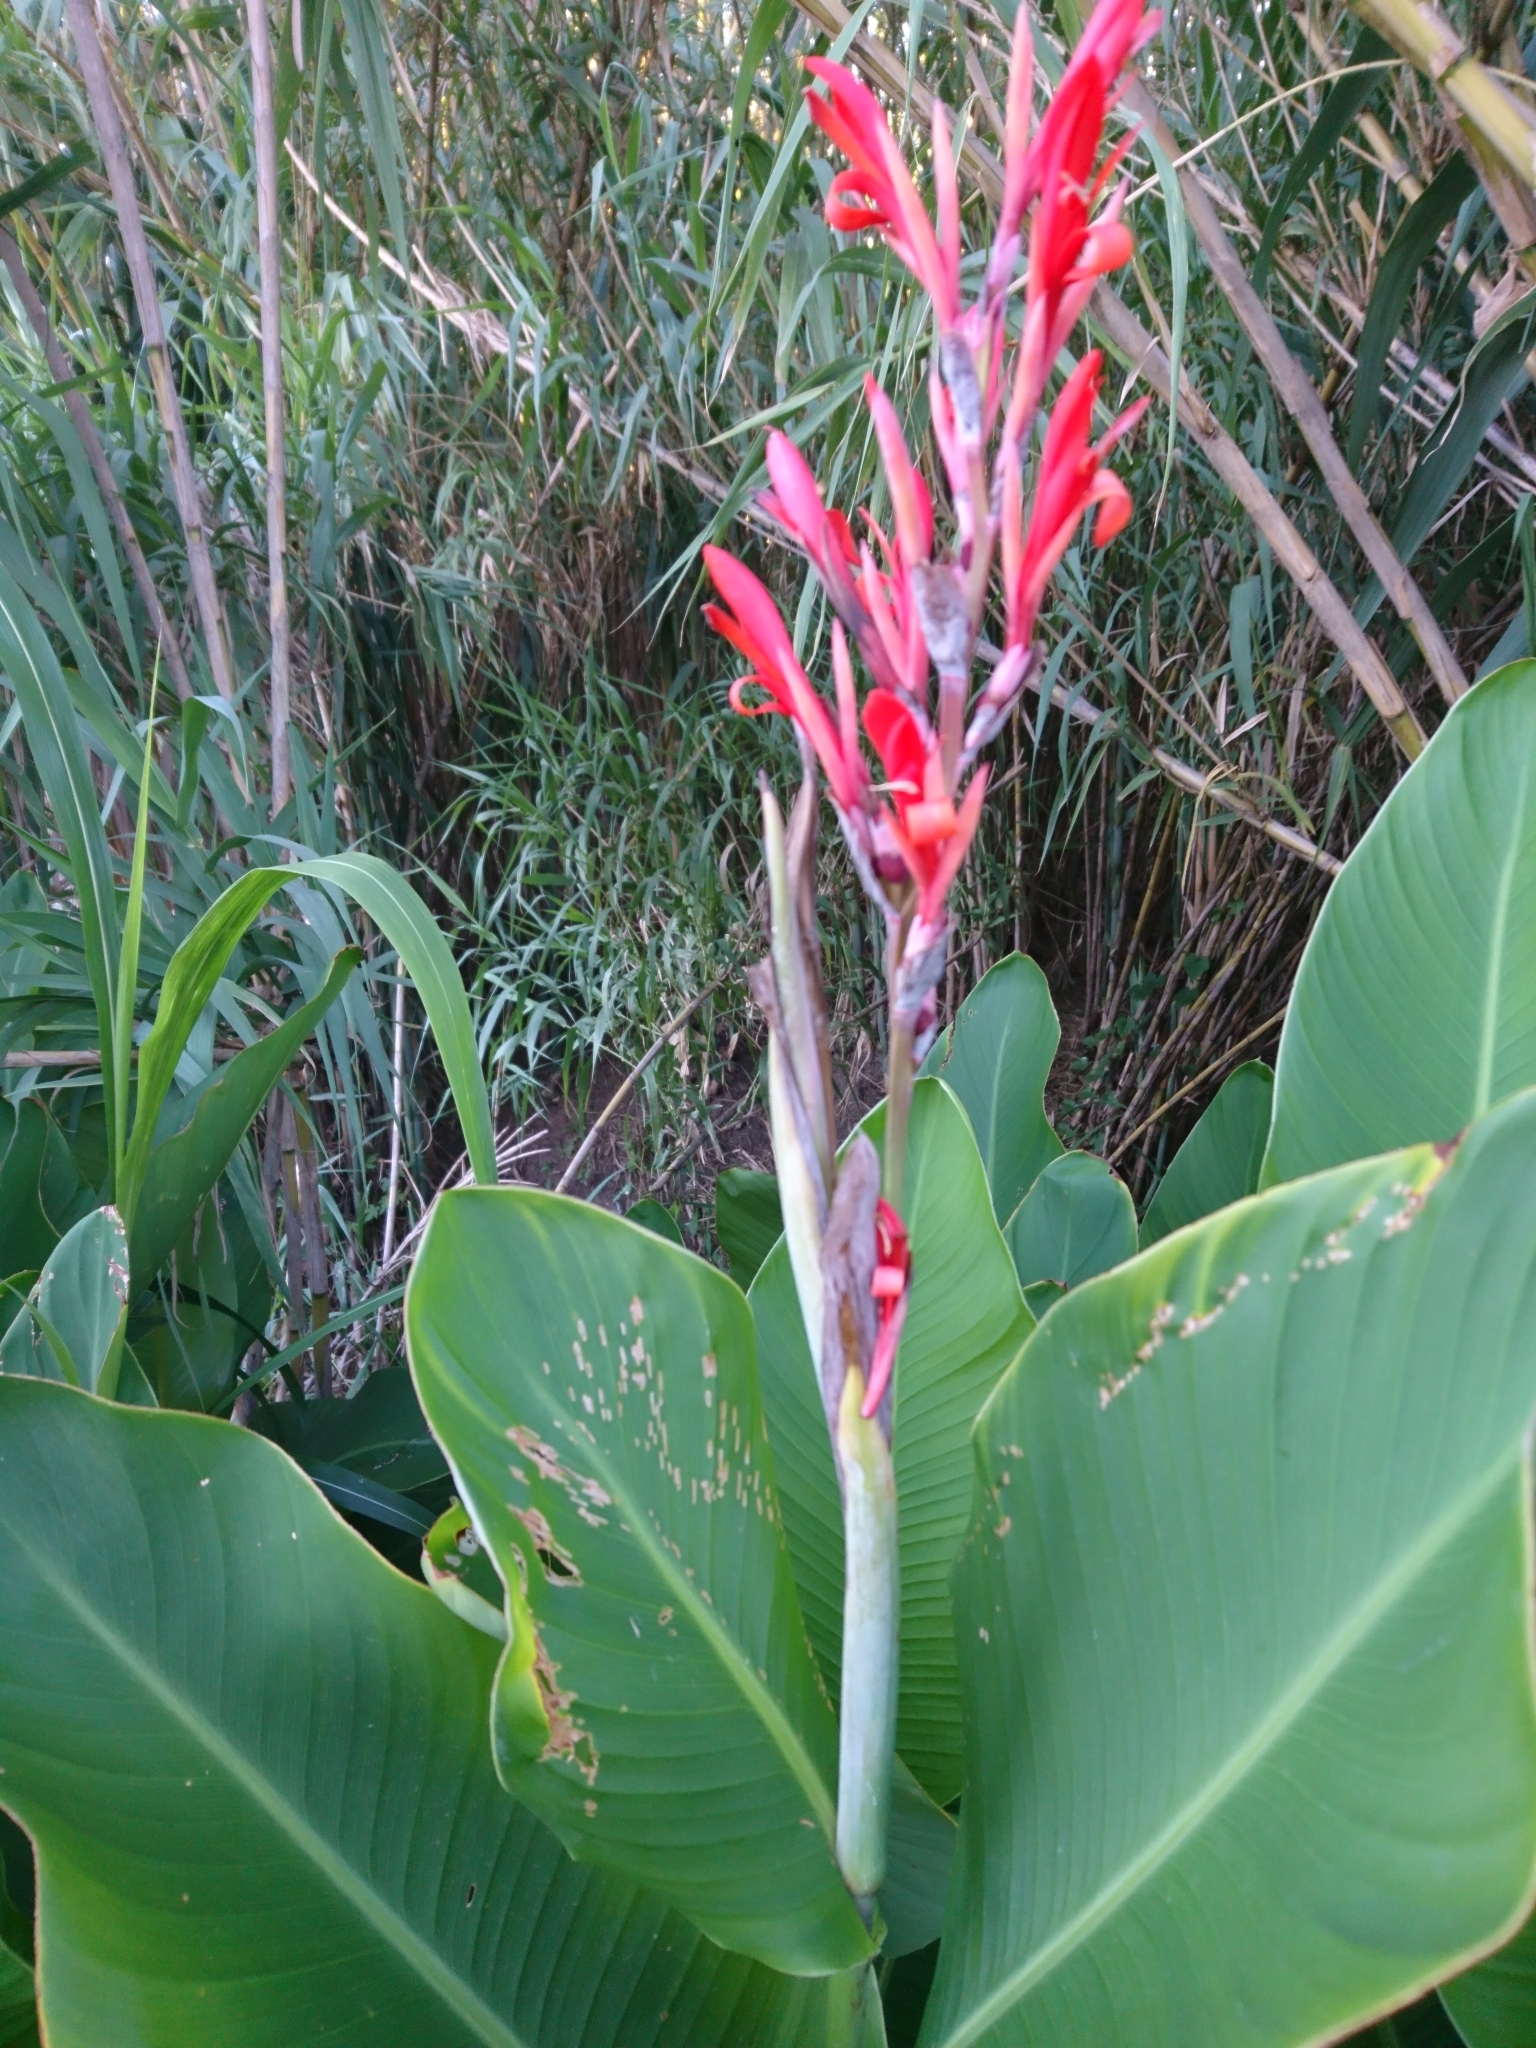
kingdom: Plantae
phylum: Tracheophyta
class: Liliopsida
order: Zingiberales
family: Cannaceae
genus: Canna
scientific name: Canna indica
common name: Indian shot
